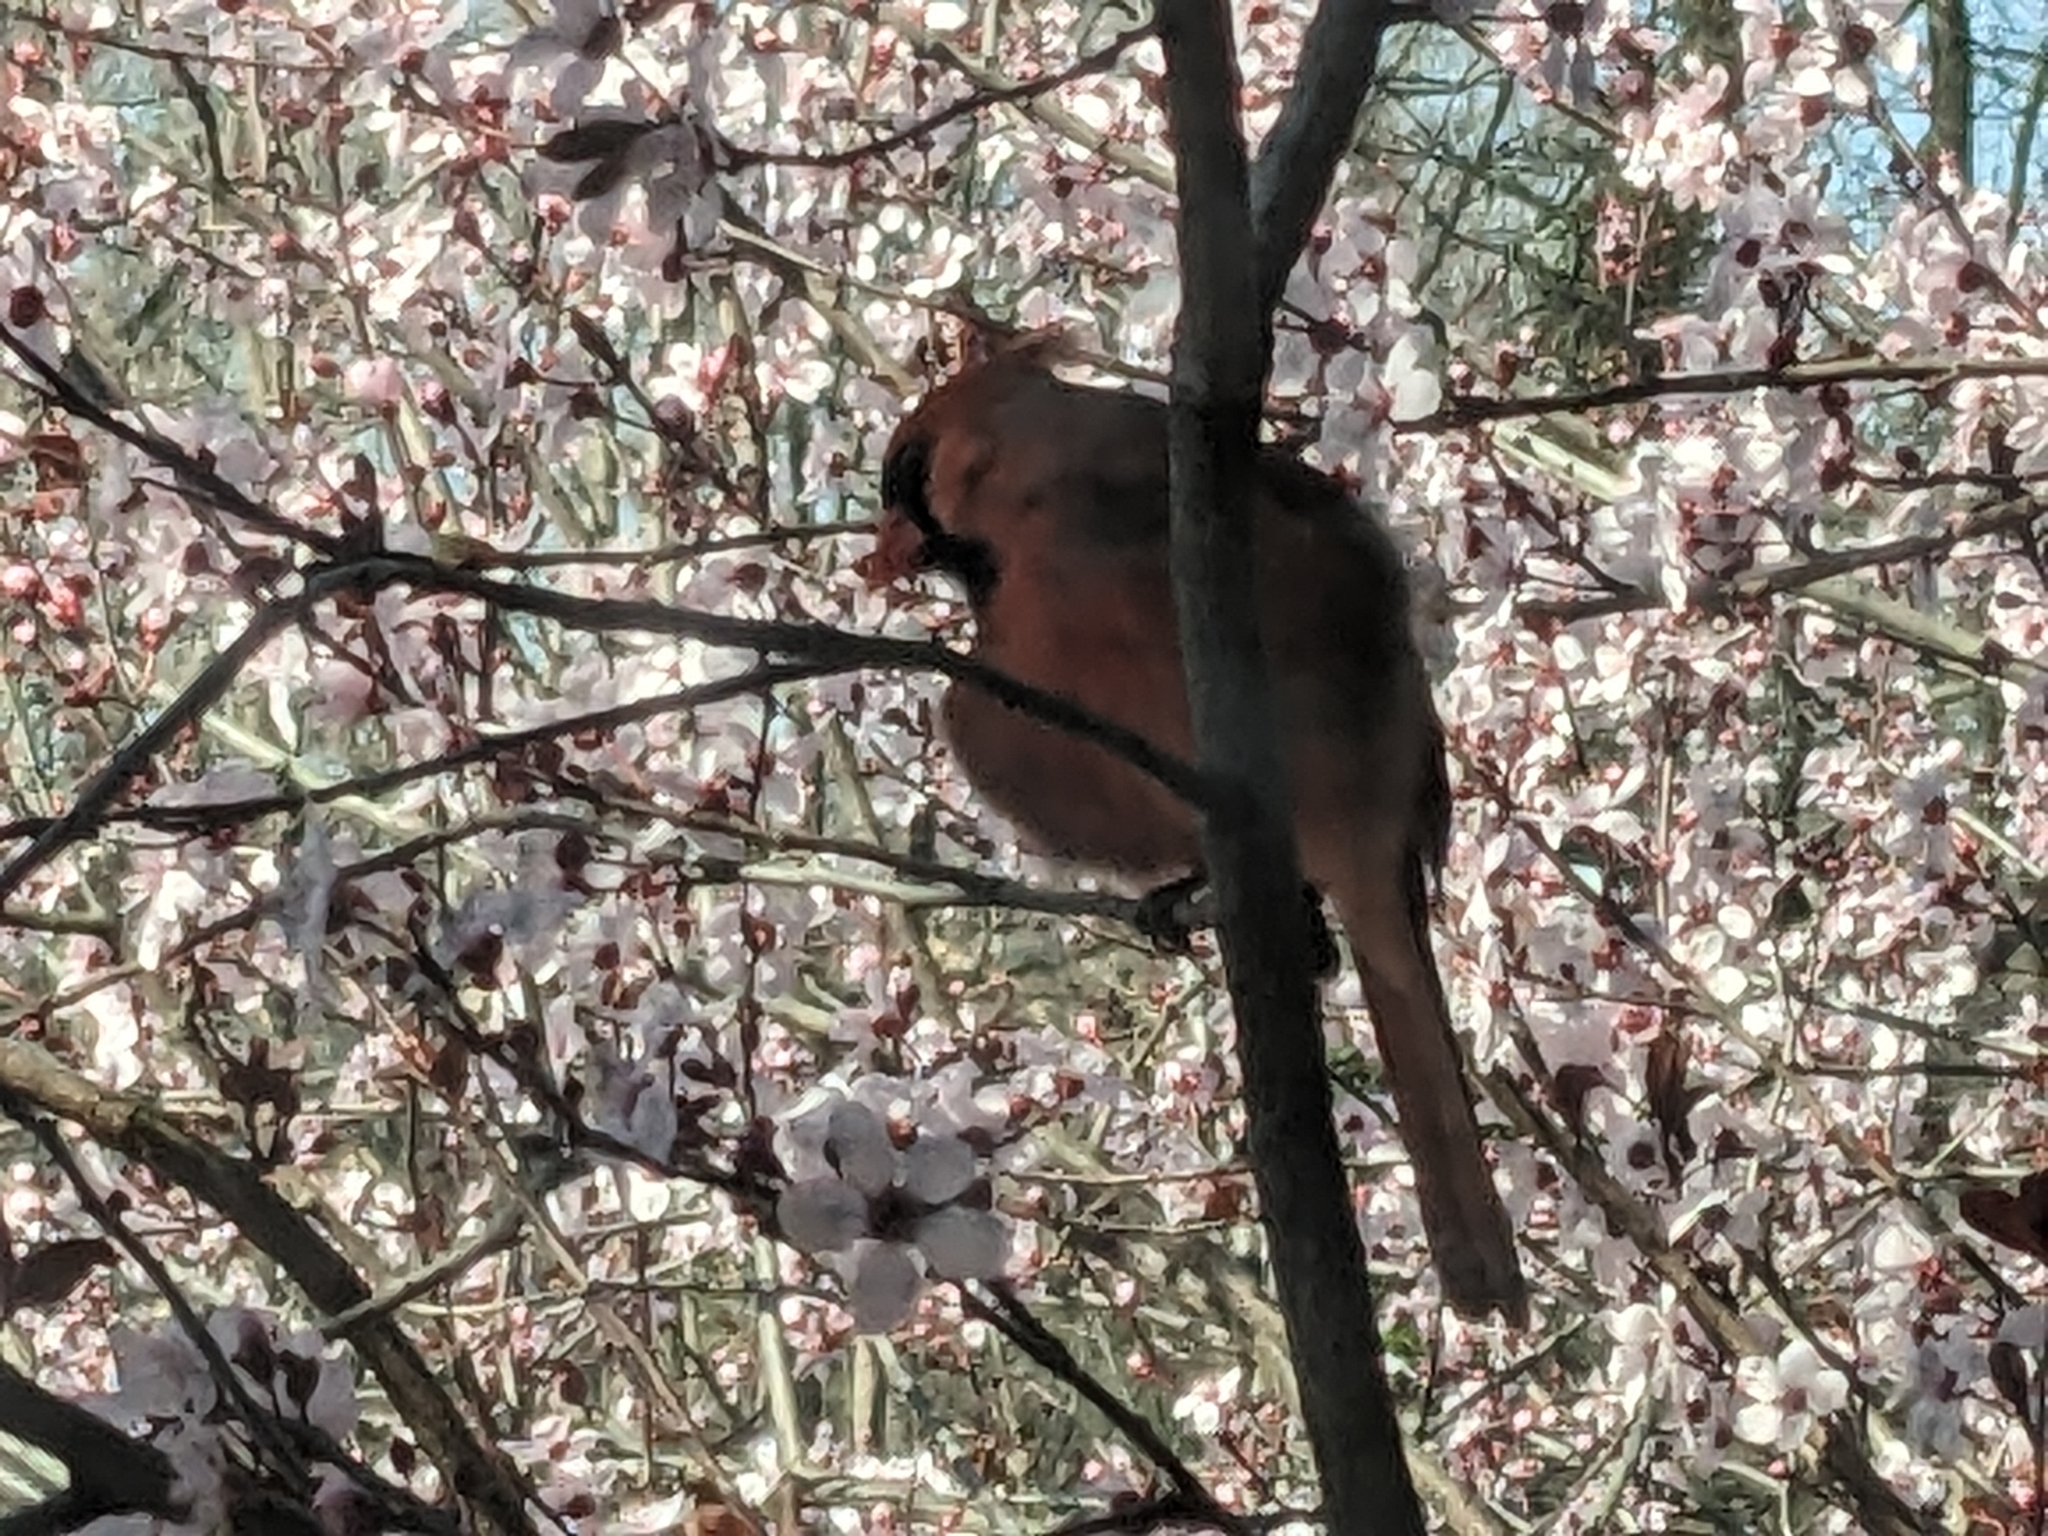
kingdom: Animalia
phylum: Chordata
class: Aves
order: Passeriformes
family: Cardinalidae
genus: Cardinalis
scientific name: Cardinalis cardinalis
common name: Northern cardinal
